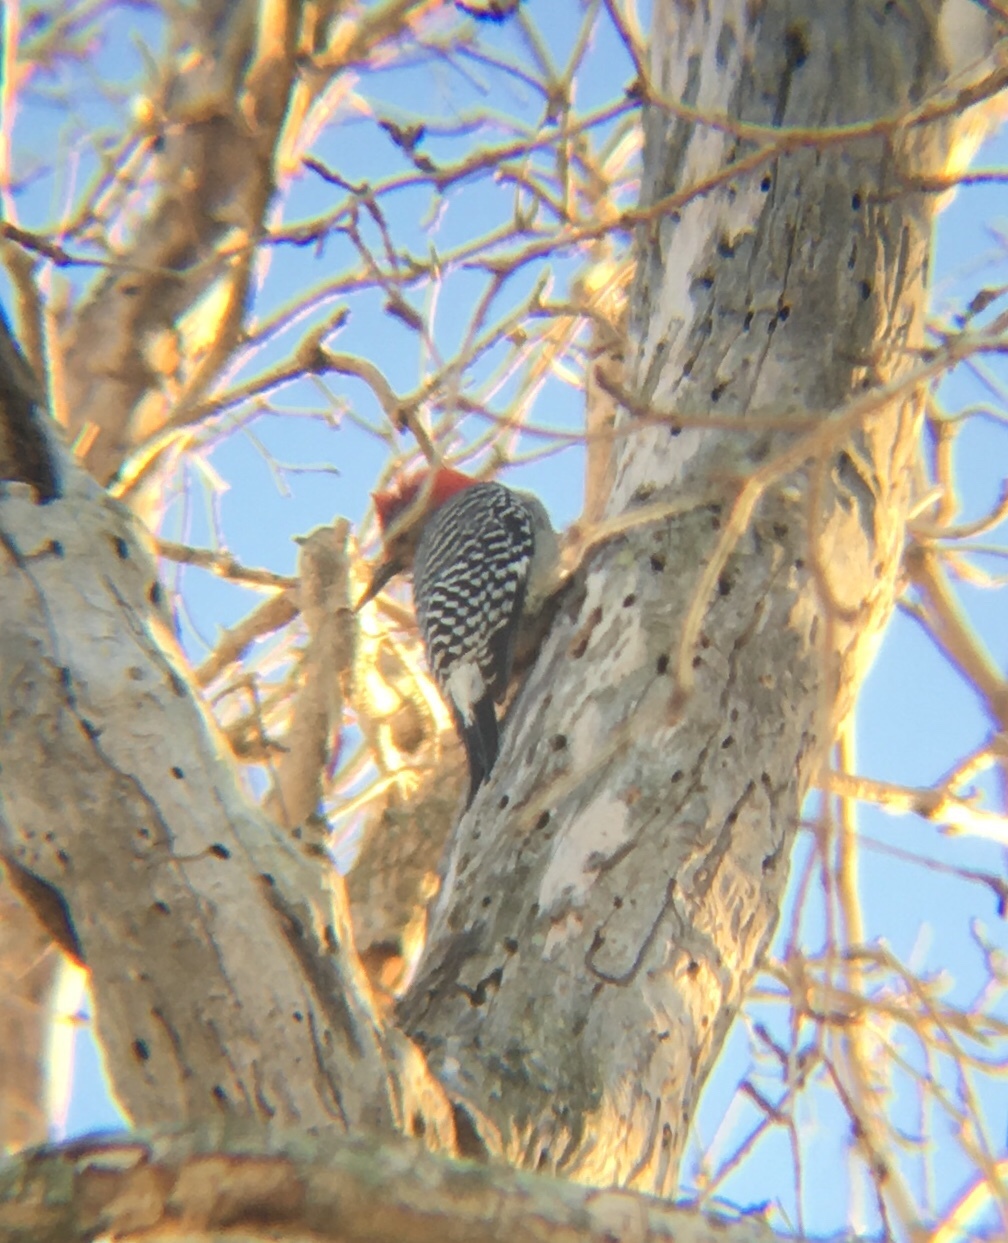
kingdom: Animalia
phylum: Chordata
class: Aves
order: Piciformes
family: Picidae
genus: Melanerpes
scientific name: Melanerpes carolinus
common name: Red-bellied woodpecker
